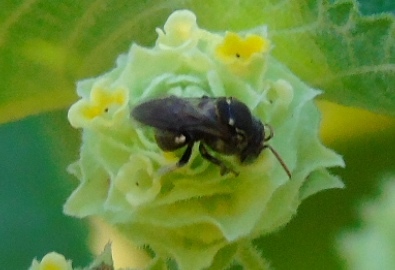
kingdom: Animalia
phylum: Arthropoda
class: Insecta
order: Hymenoptera
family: Apidae
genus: Nannotrigona
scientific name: Nannotrigona perilampoides
